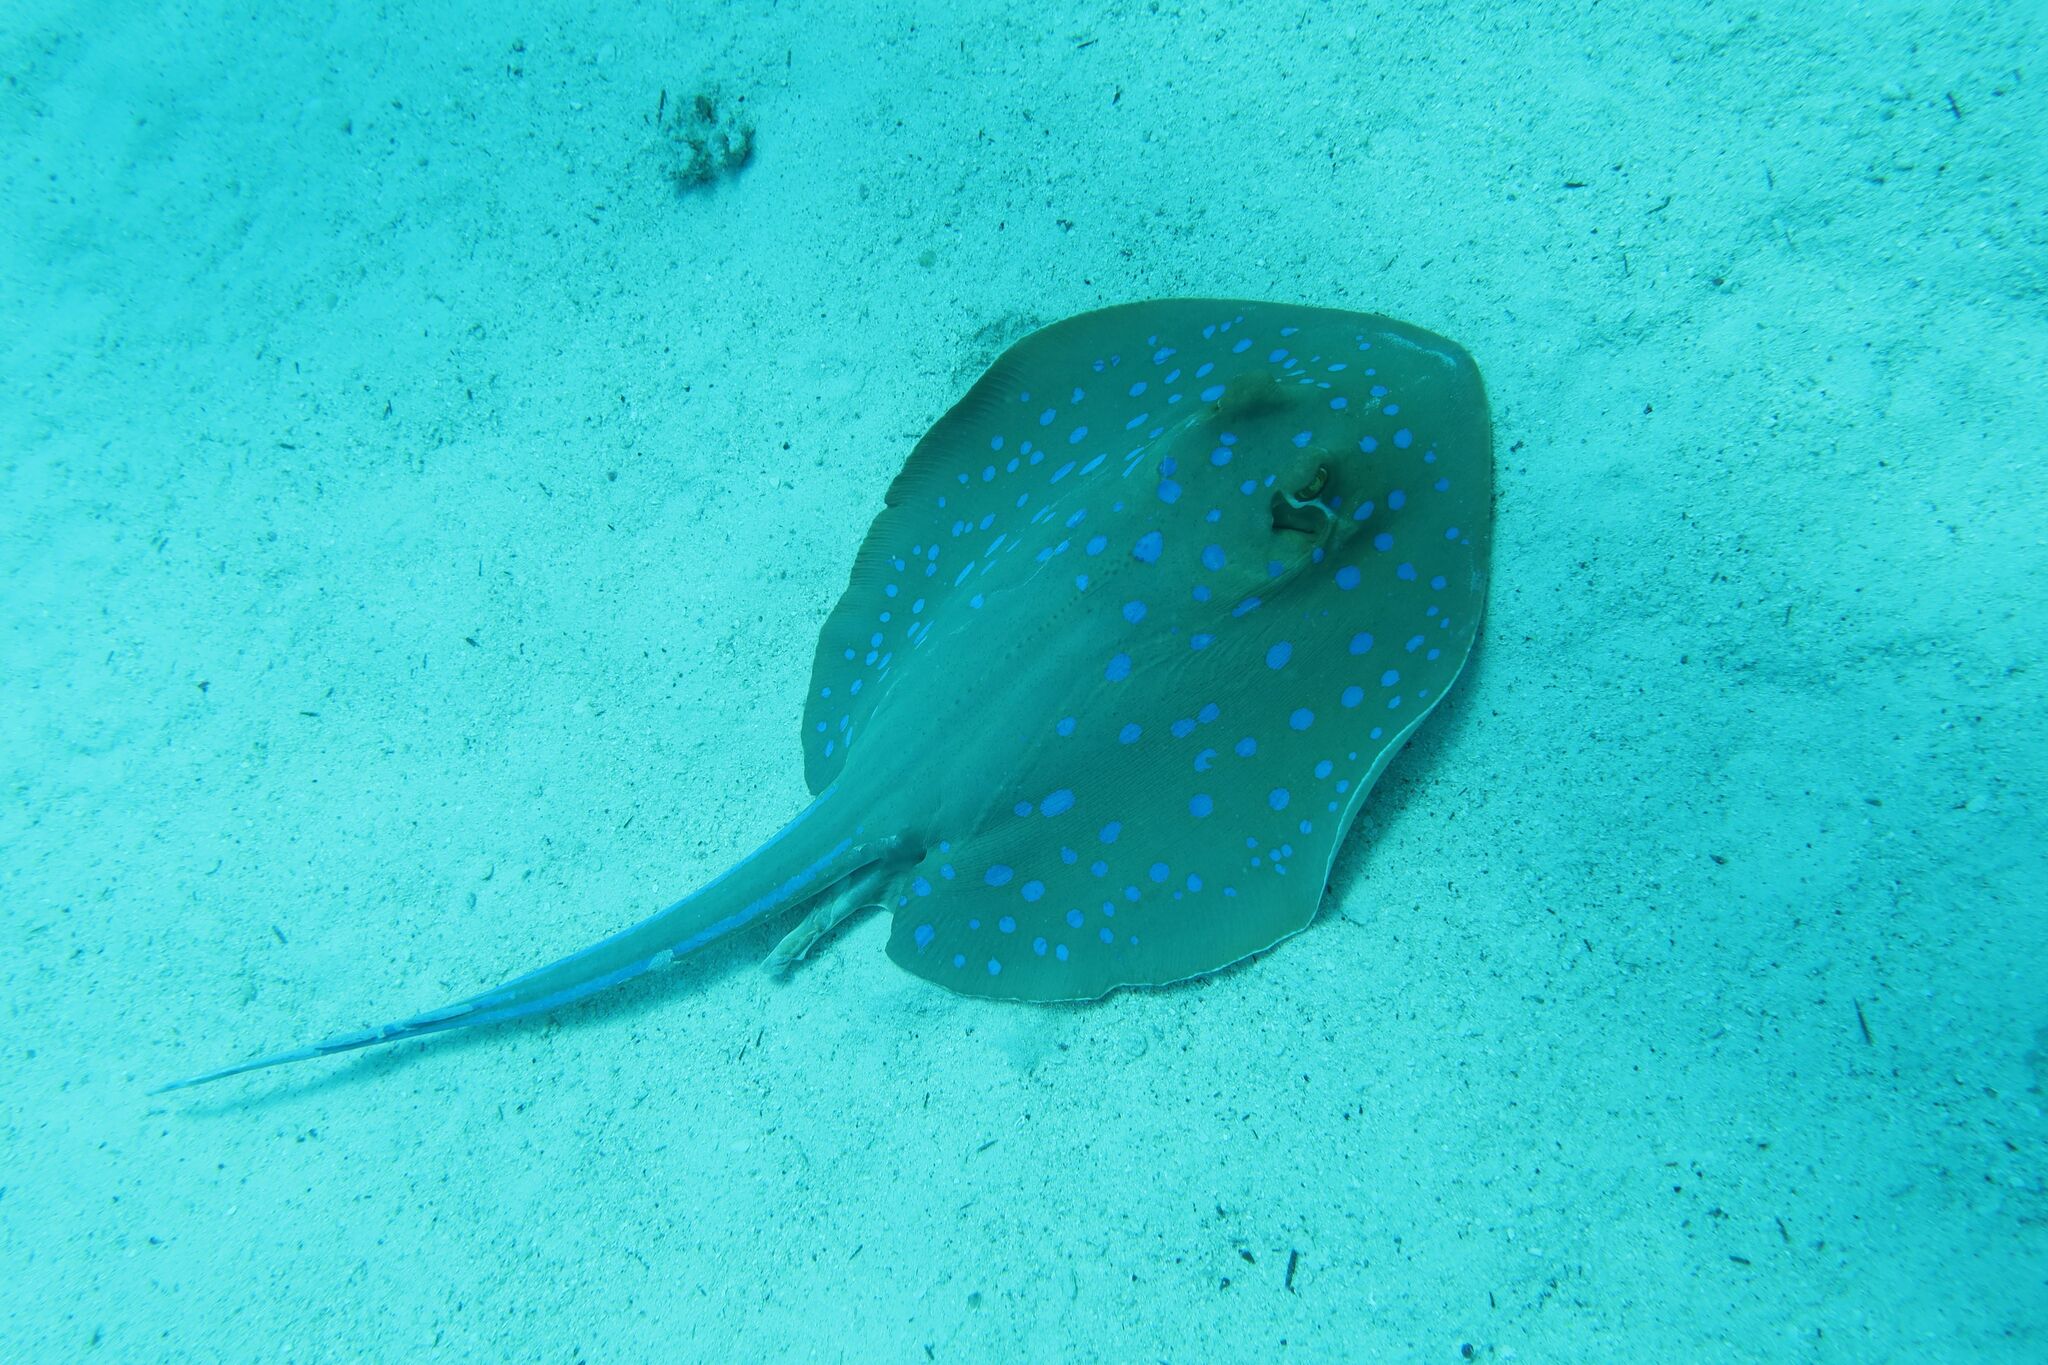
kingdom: Animalia
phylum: Chordata
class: Elasmobranchii
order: Myliobatiformes
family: Dasyatidae
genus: Taeniura
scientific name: Taeniura lymma
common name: Bluespotted ribbontail ray
